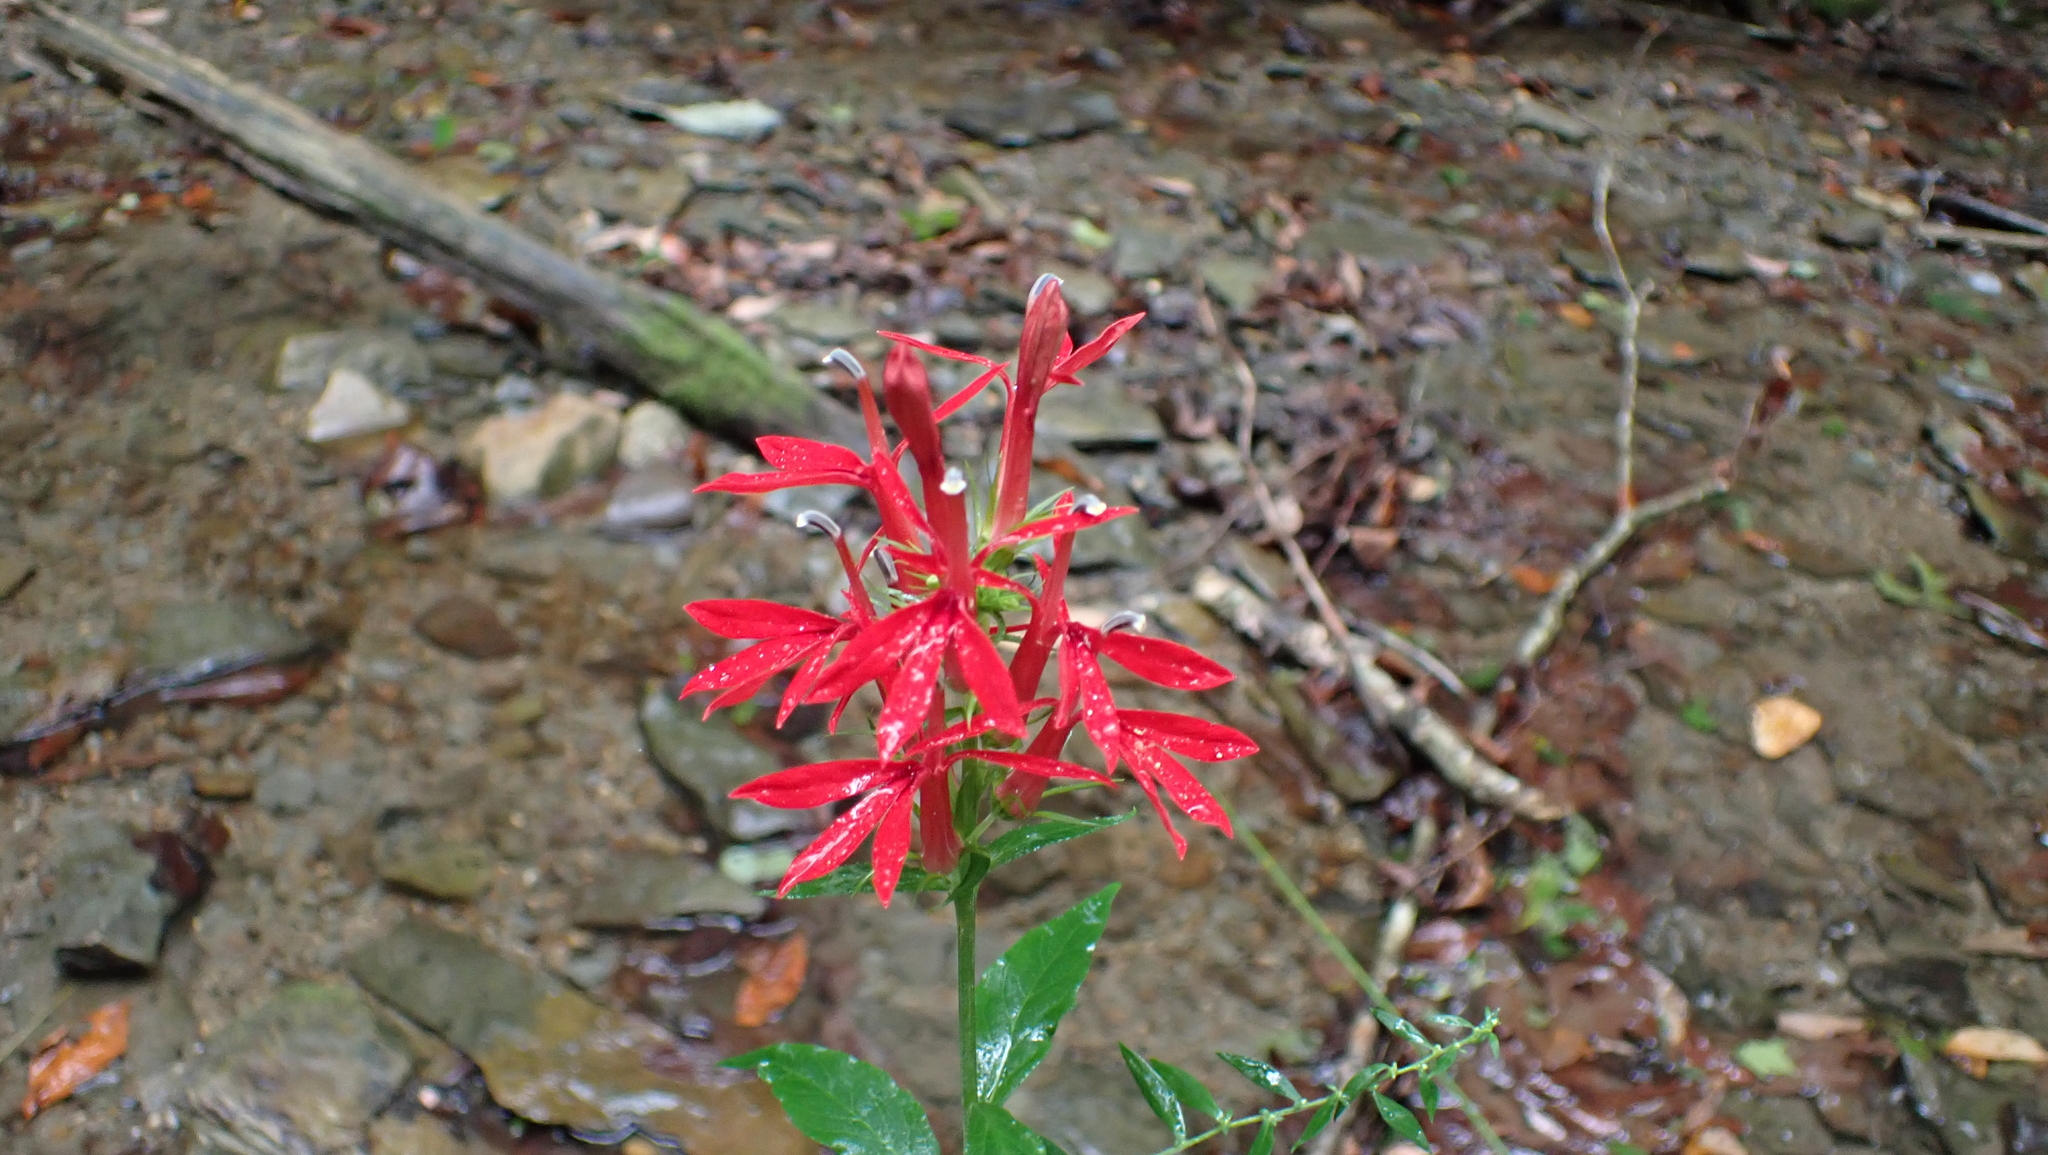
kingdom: Plantae
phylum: Tracheophyta
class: Magnoliopsida
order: Asterales
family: Campanulaceae
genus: Lobelia
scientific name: Lobelia cardinalis
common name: Cardinal flower
